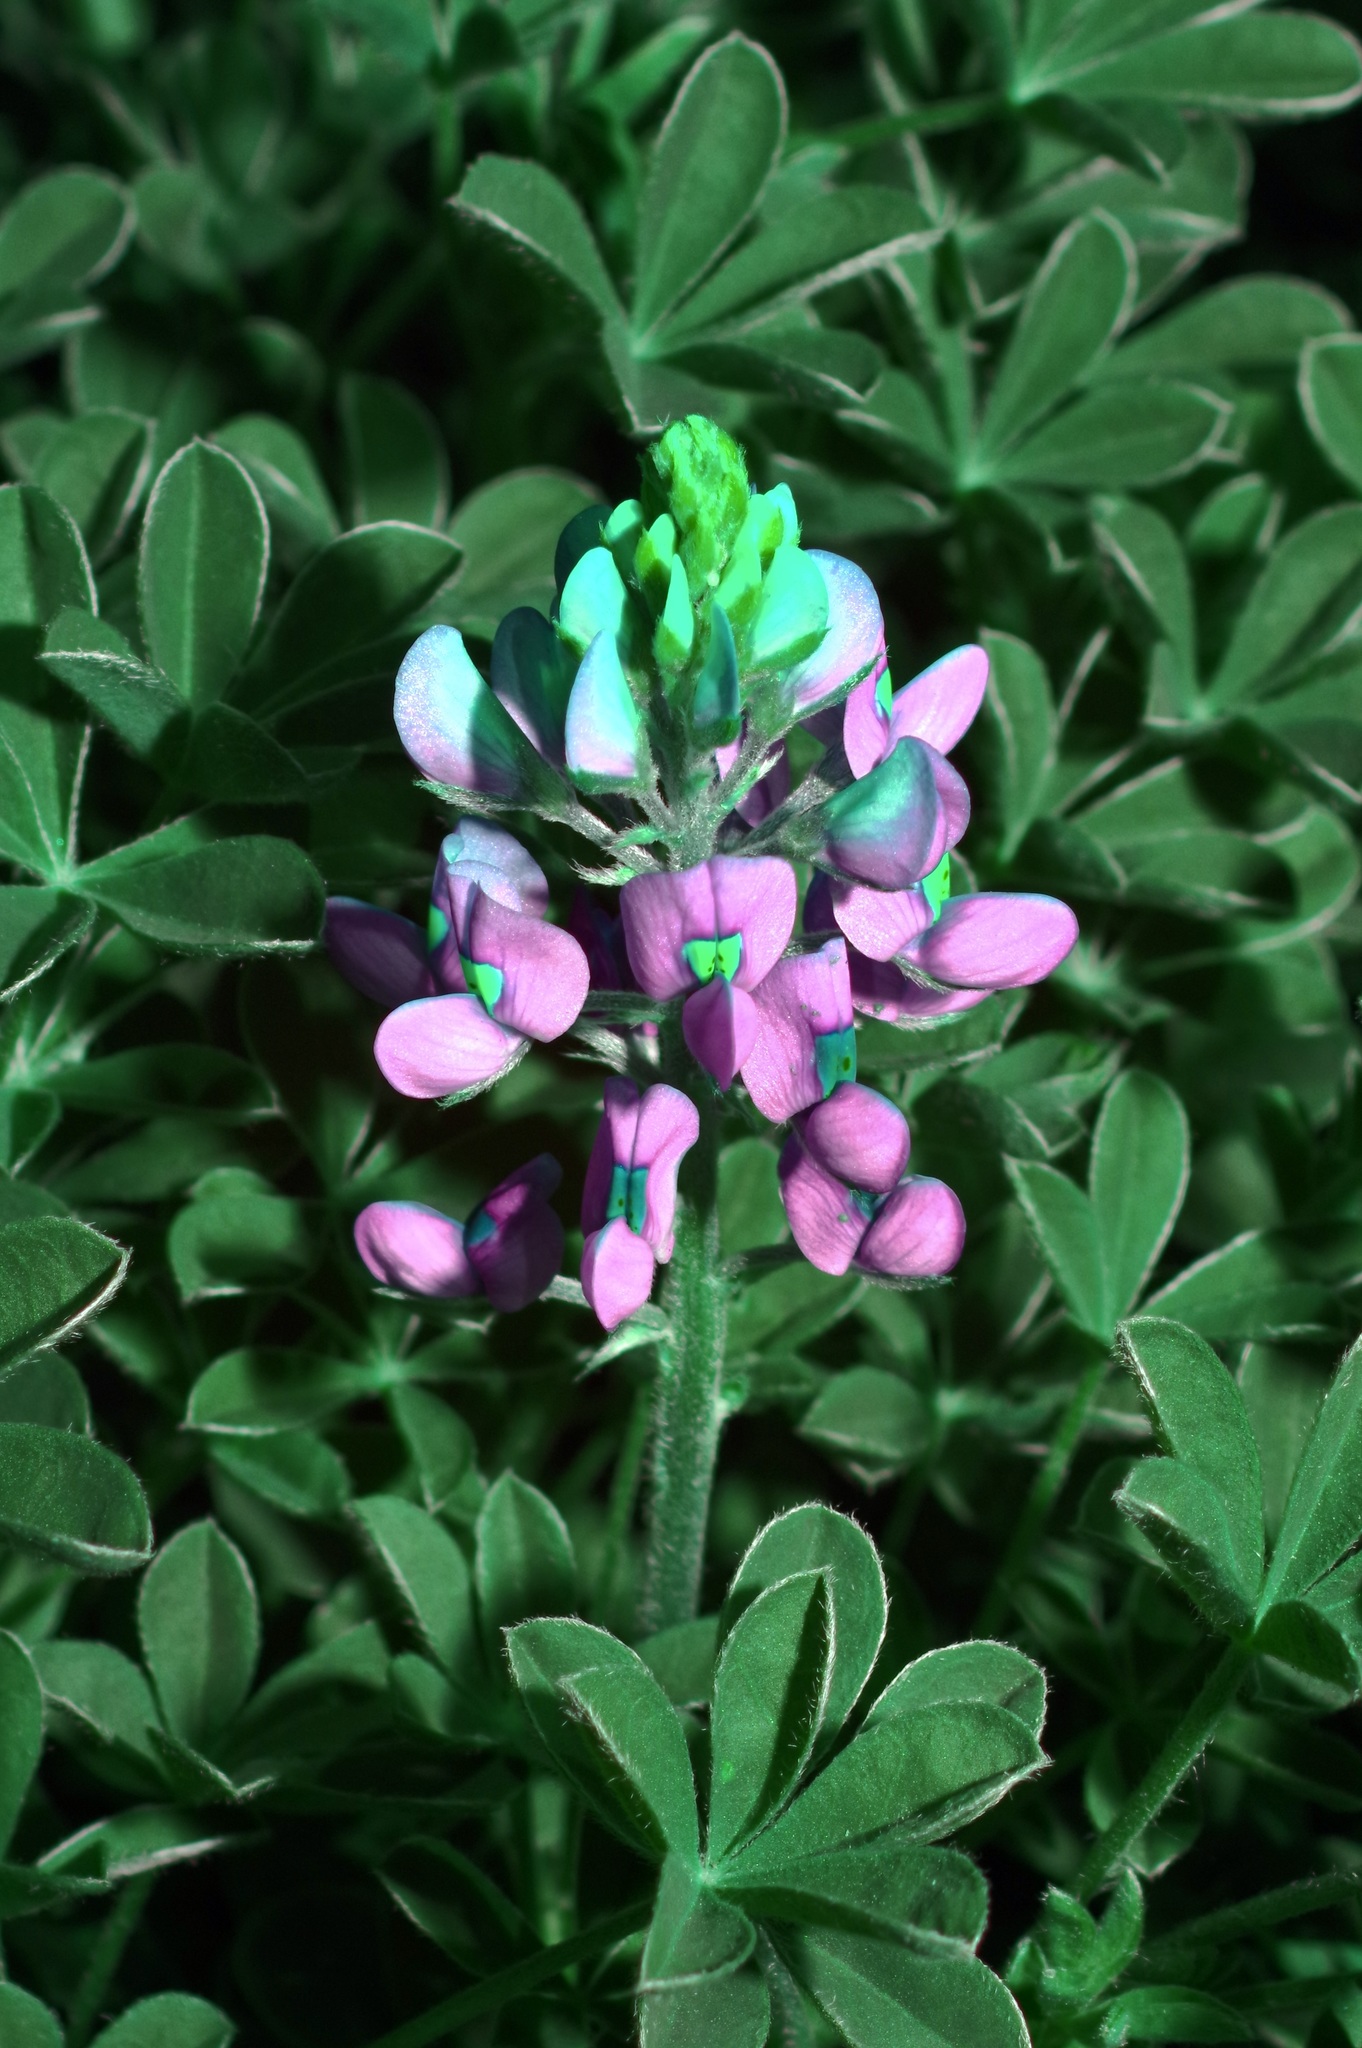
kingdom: Plantae
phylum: Tracheophyta
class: Magnoliopsida
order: Fabales
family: Fabaceae
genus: Lupinus
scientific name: Lupinus texensis
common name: Texas bluebonnet
